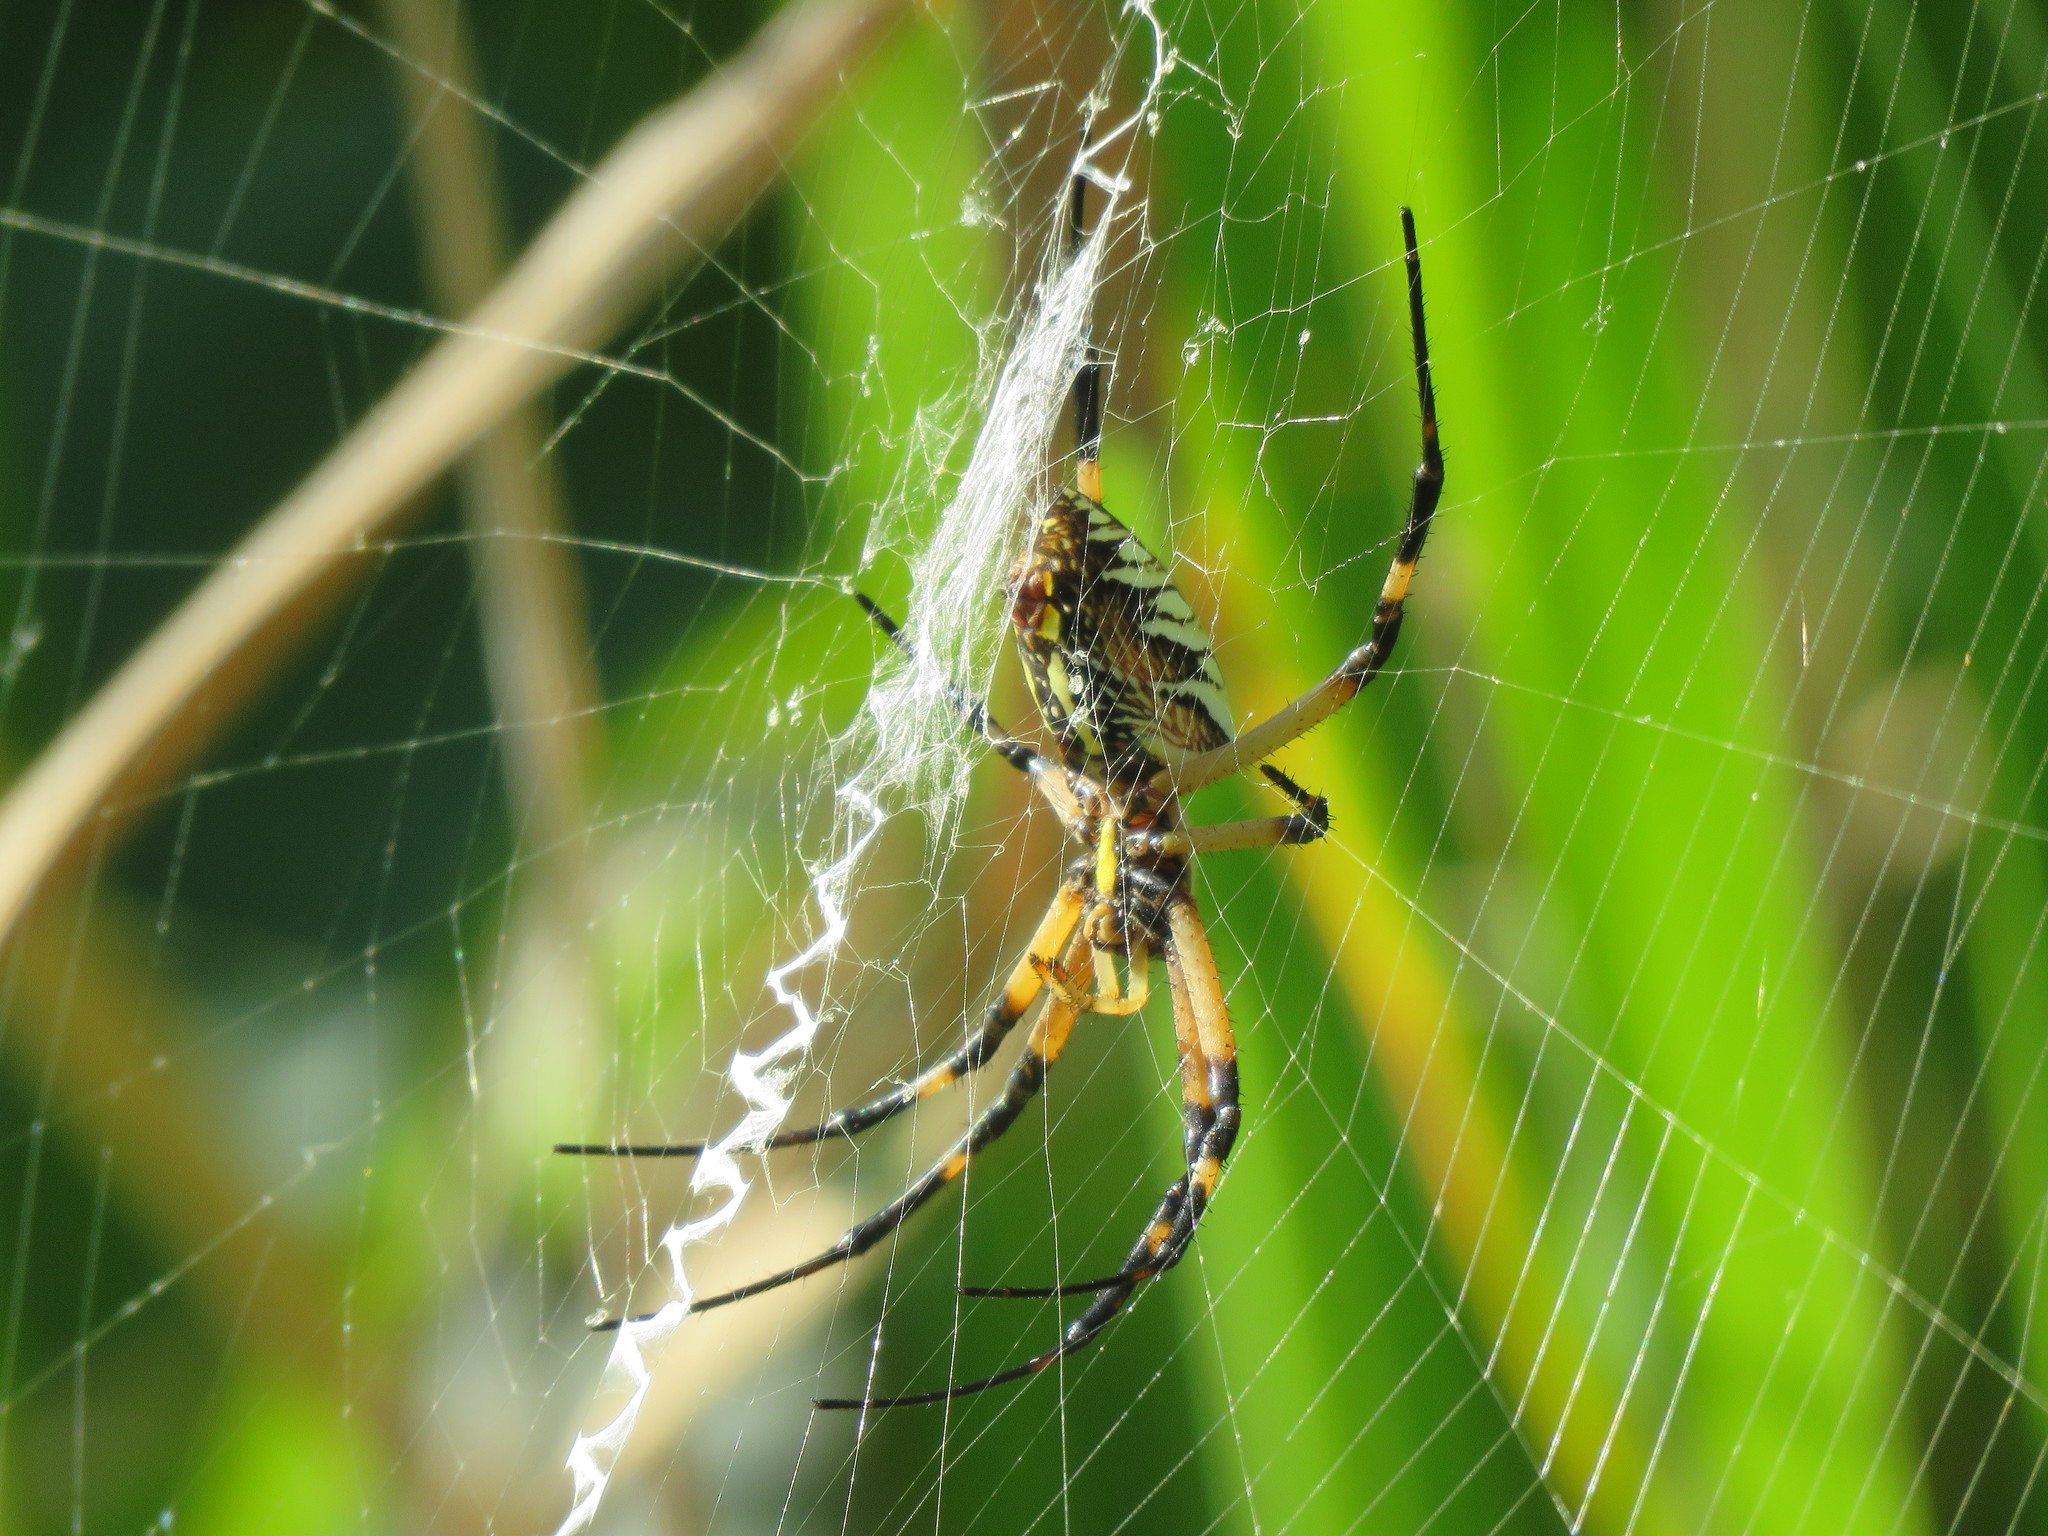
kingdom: Animalia
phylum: Arthropoda
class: Arachnida
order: Araneae
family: Araneidae
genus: Argiope
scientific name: Argiope aurantia
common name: Orb weavers
